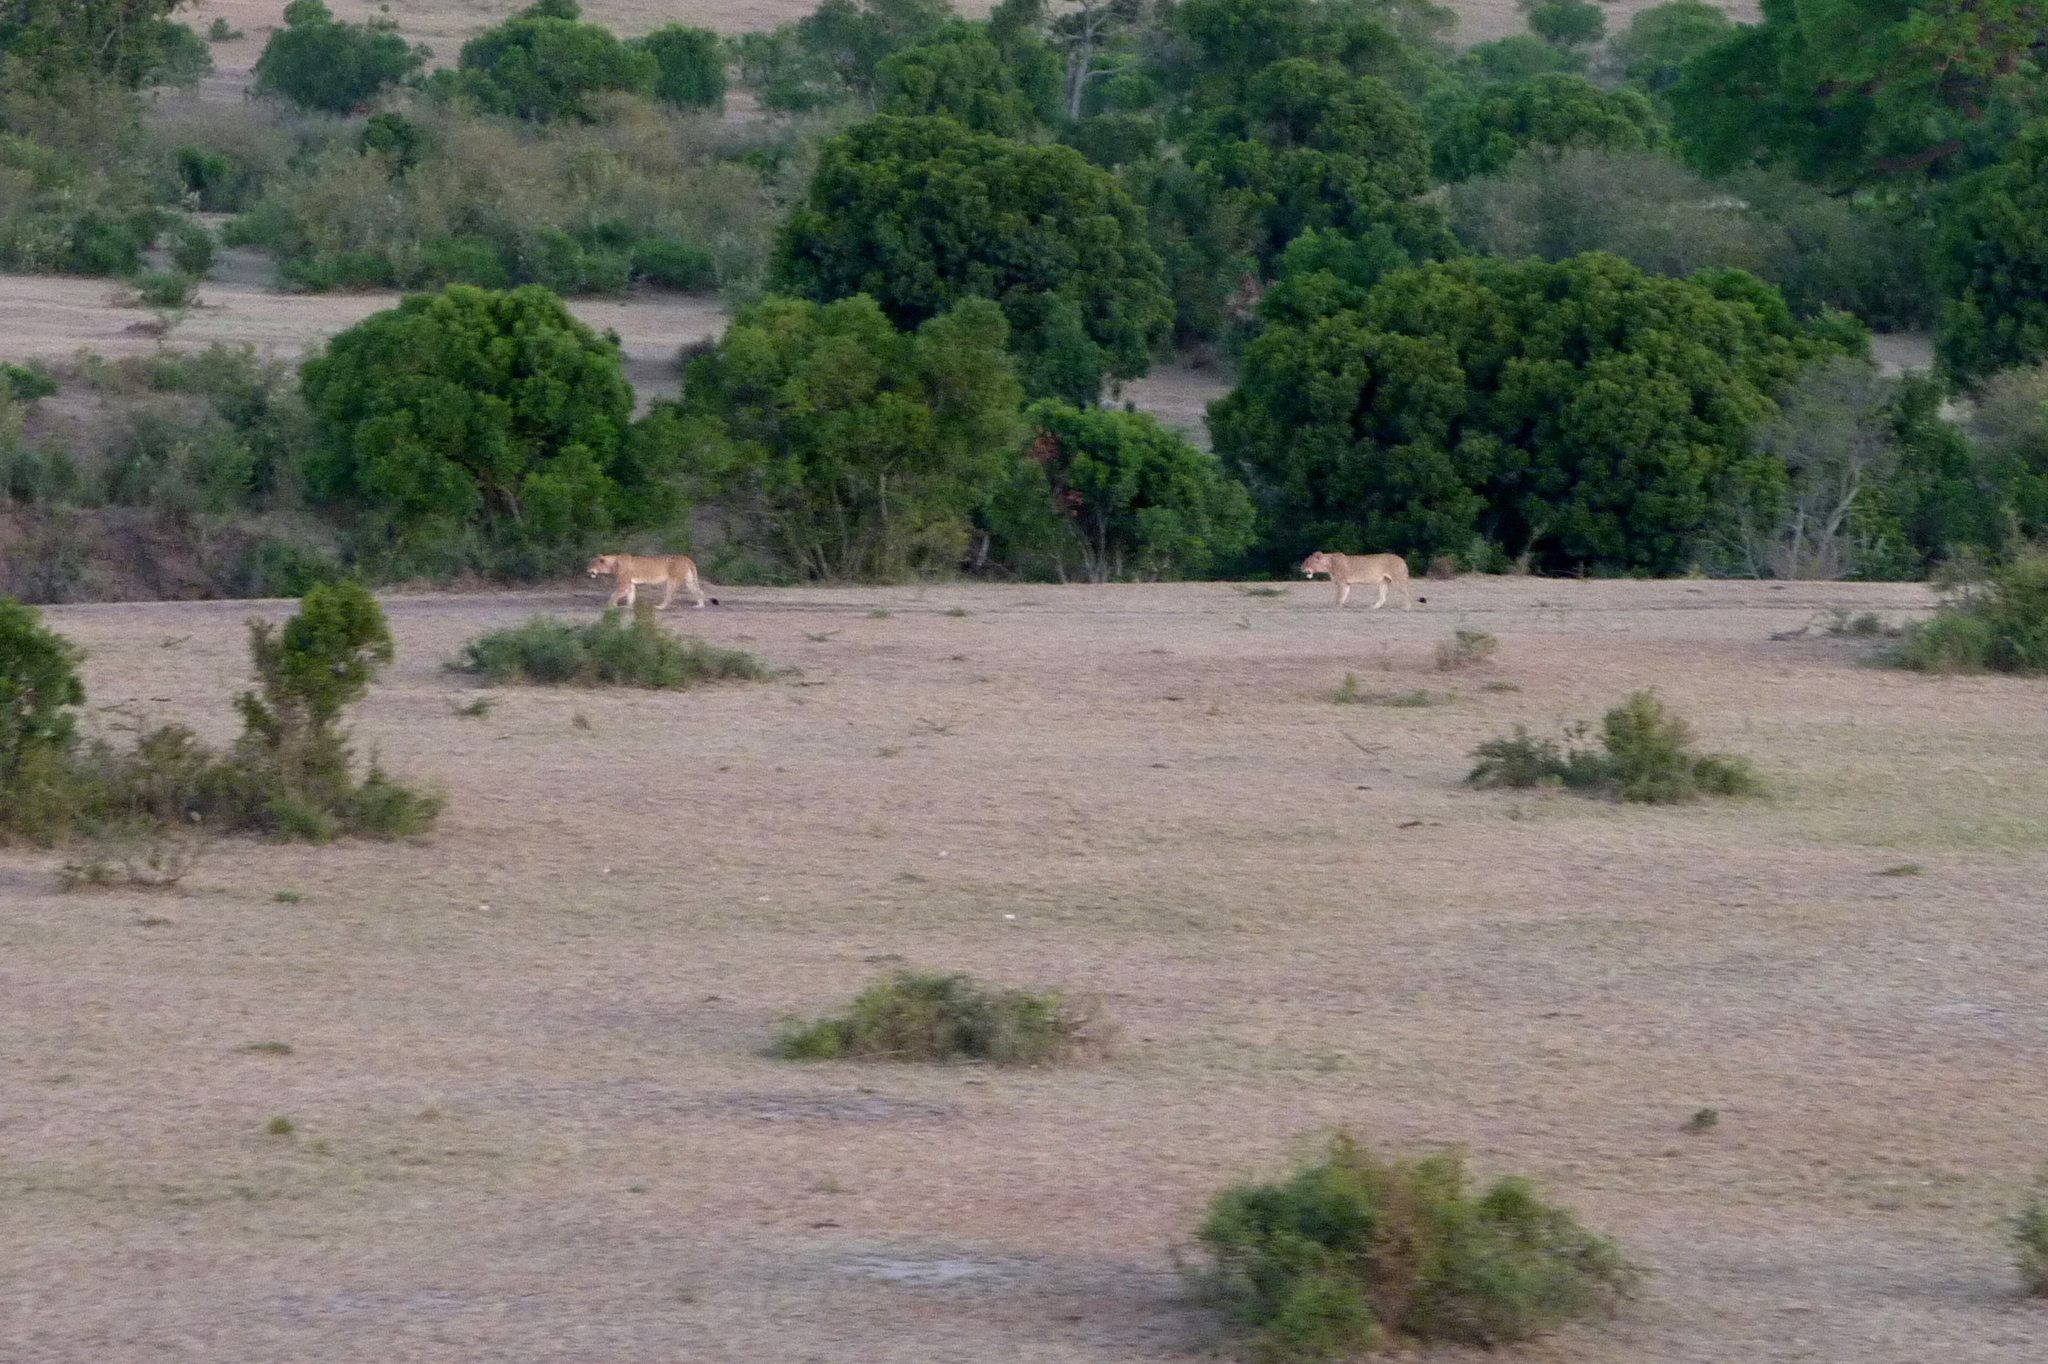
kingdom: Animalia
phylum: Chordata
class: Mammalia
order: Carnivora
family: Felidae
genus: Panthera
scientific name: Panthera leo
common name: Lion
